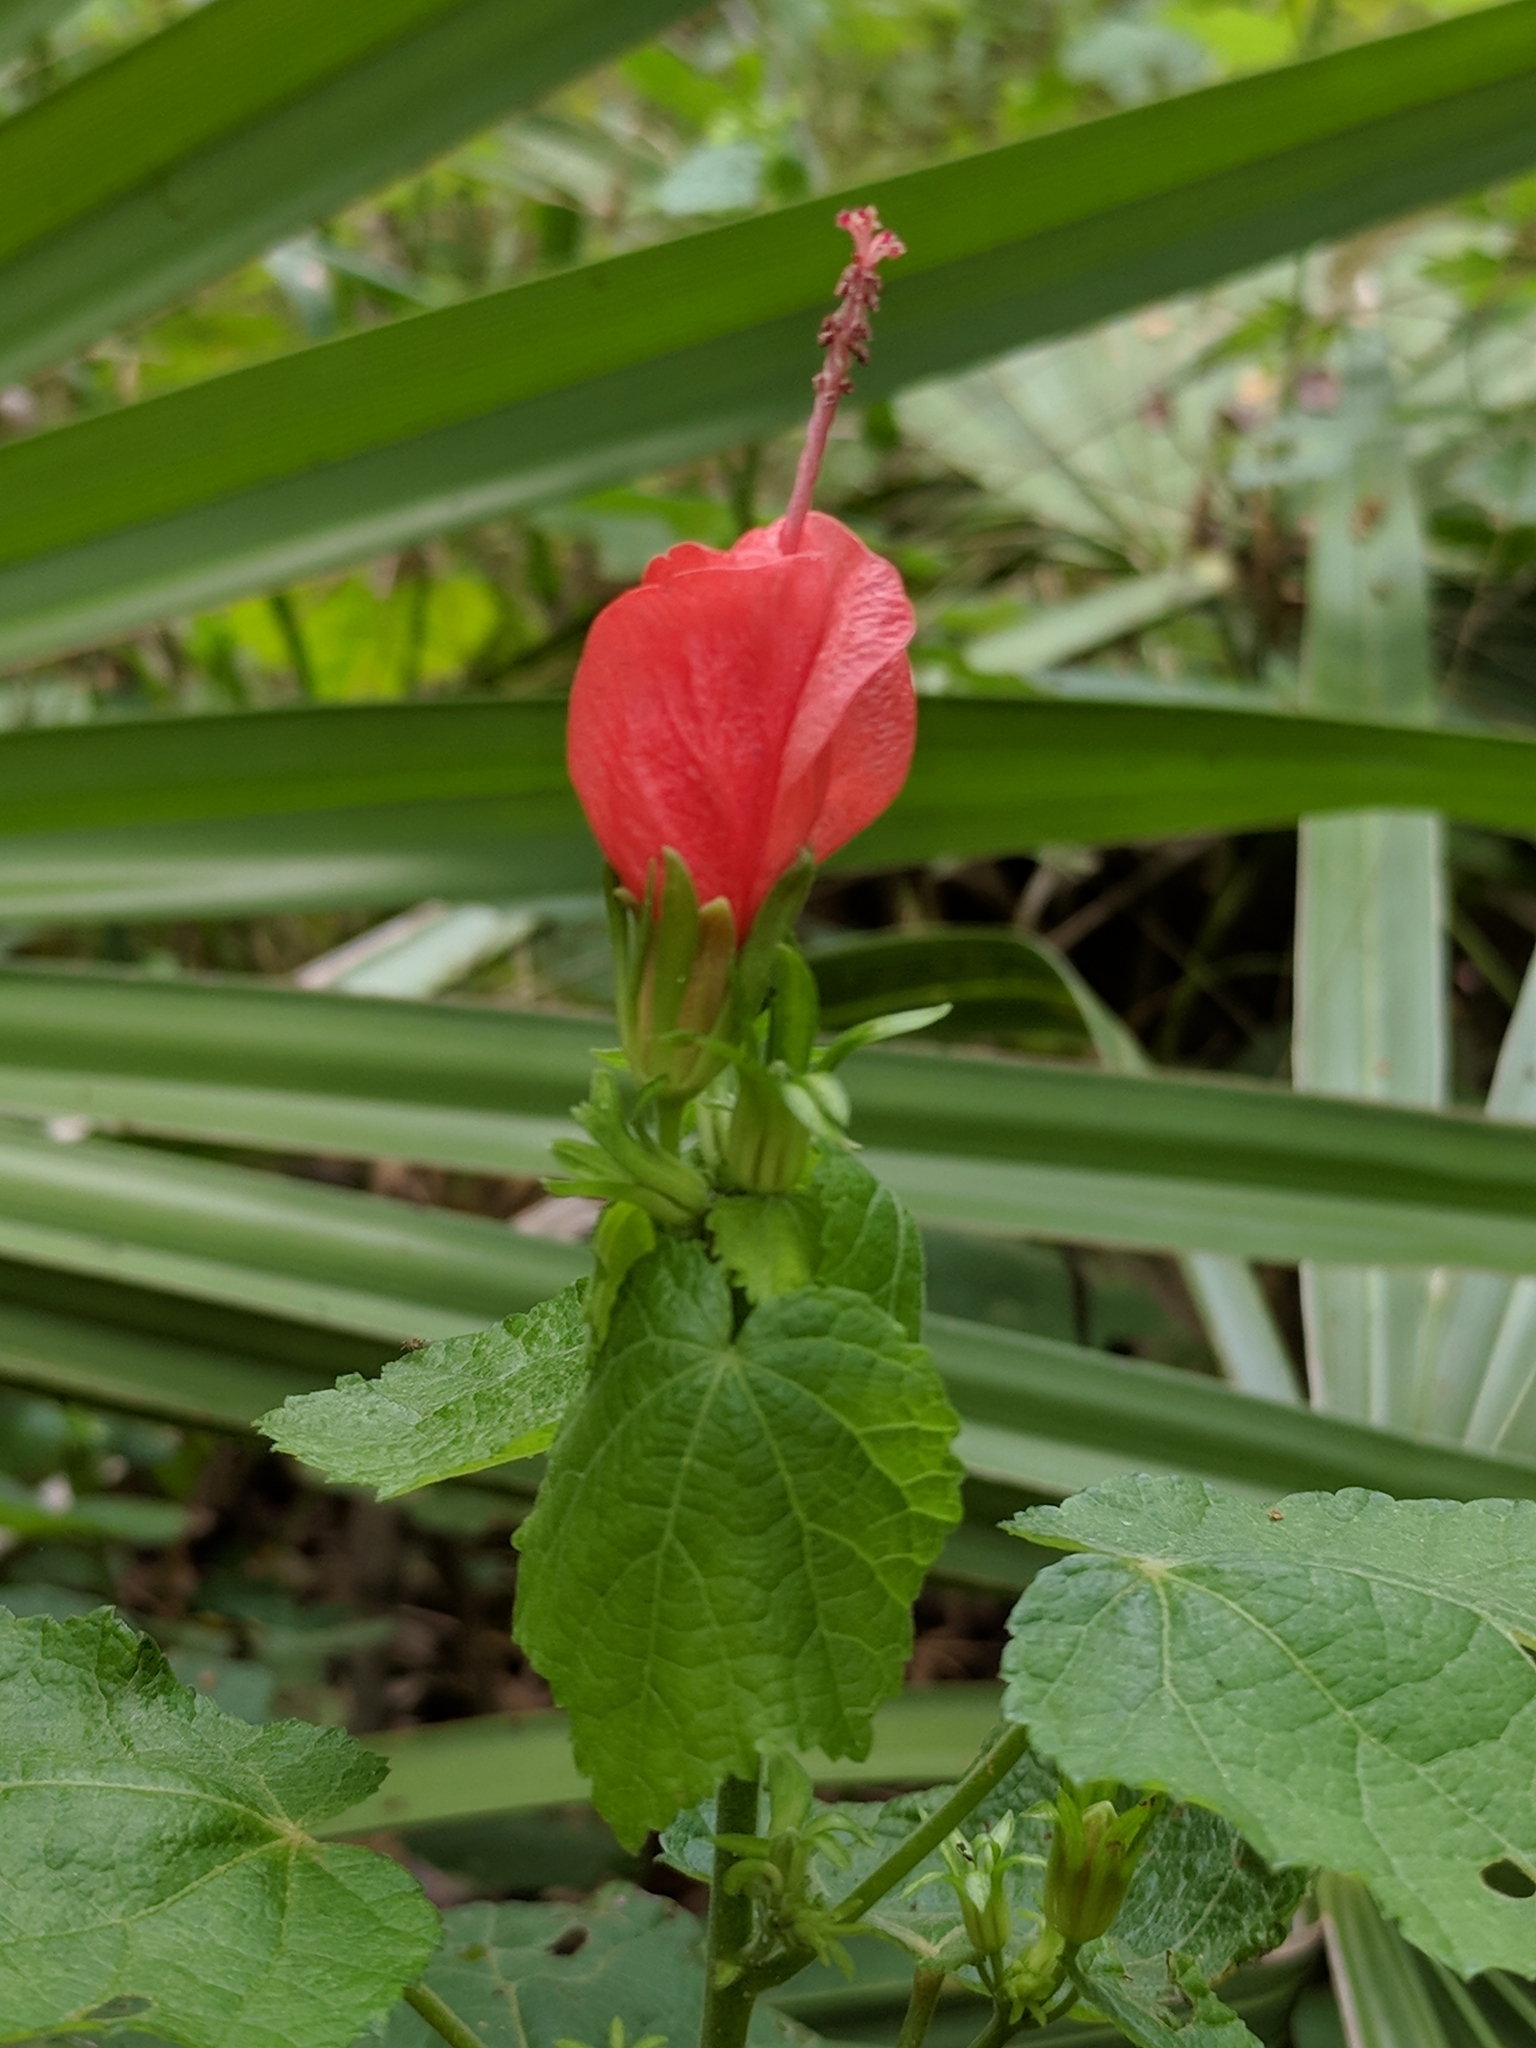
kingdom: Plantae
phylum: Tracheophyta
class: Magnoliopsida
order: Malvales
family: Malvaceae
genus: Malvaviscus
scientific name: Malvaviscus arboreus
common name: Wax mallow
